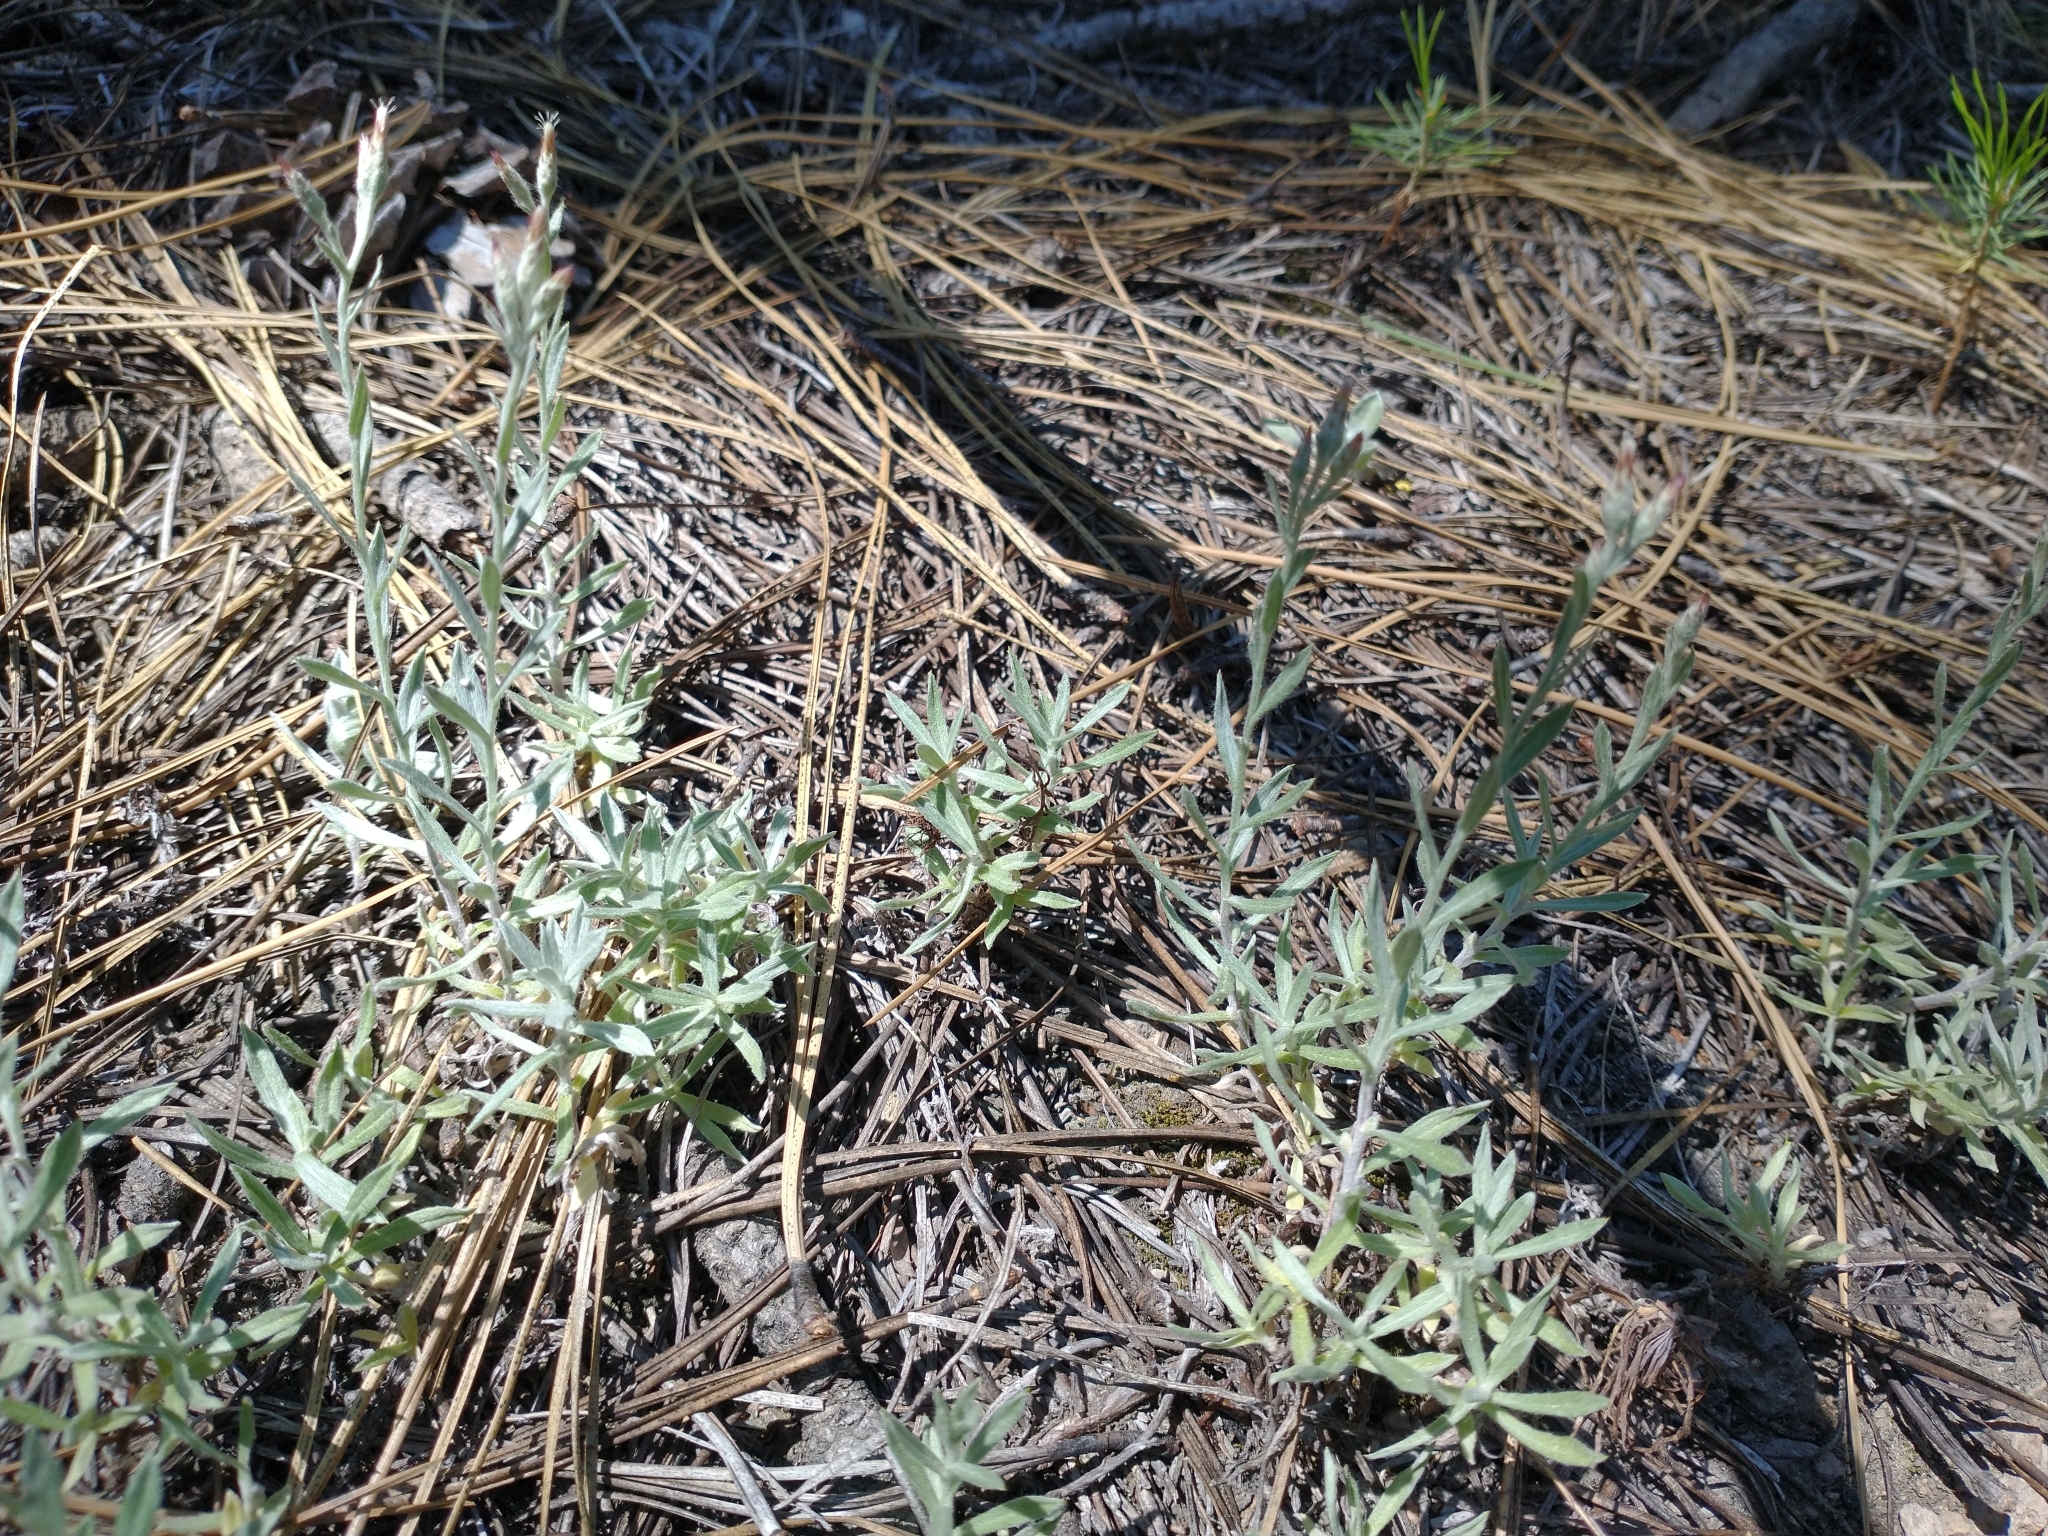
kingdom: Plantae
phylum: Tracheophyta
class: Magnoliopsida
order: Asterales
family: Asteraceae
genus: Antennaria
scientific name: Antennaria geyeri
